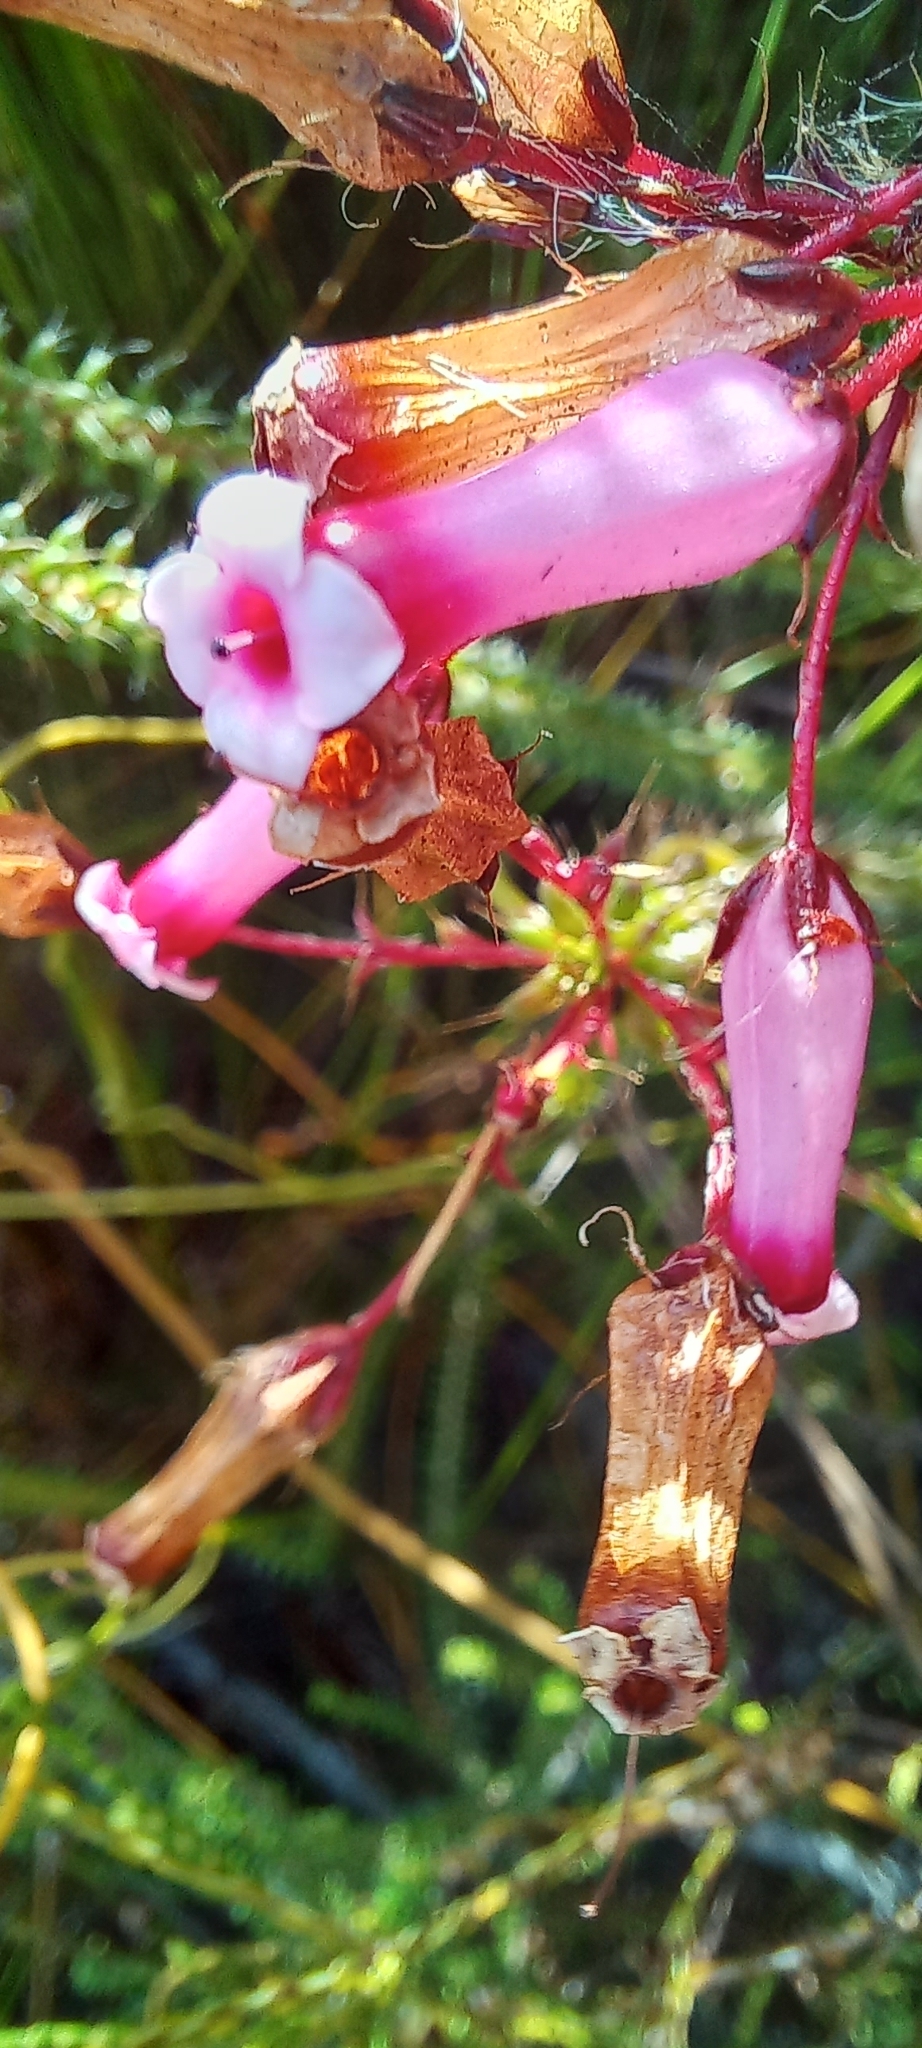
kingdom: Plantae
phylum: Tracheophyta
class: Magnoliopsida
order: Ericales
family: Ericaceae
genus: Erica
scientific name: Erica retorta
